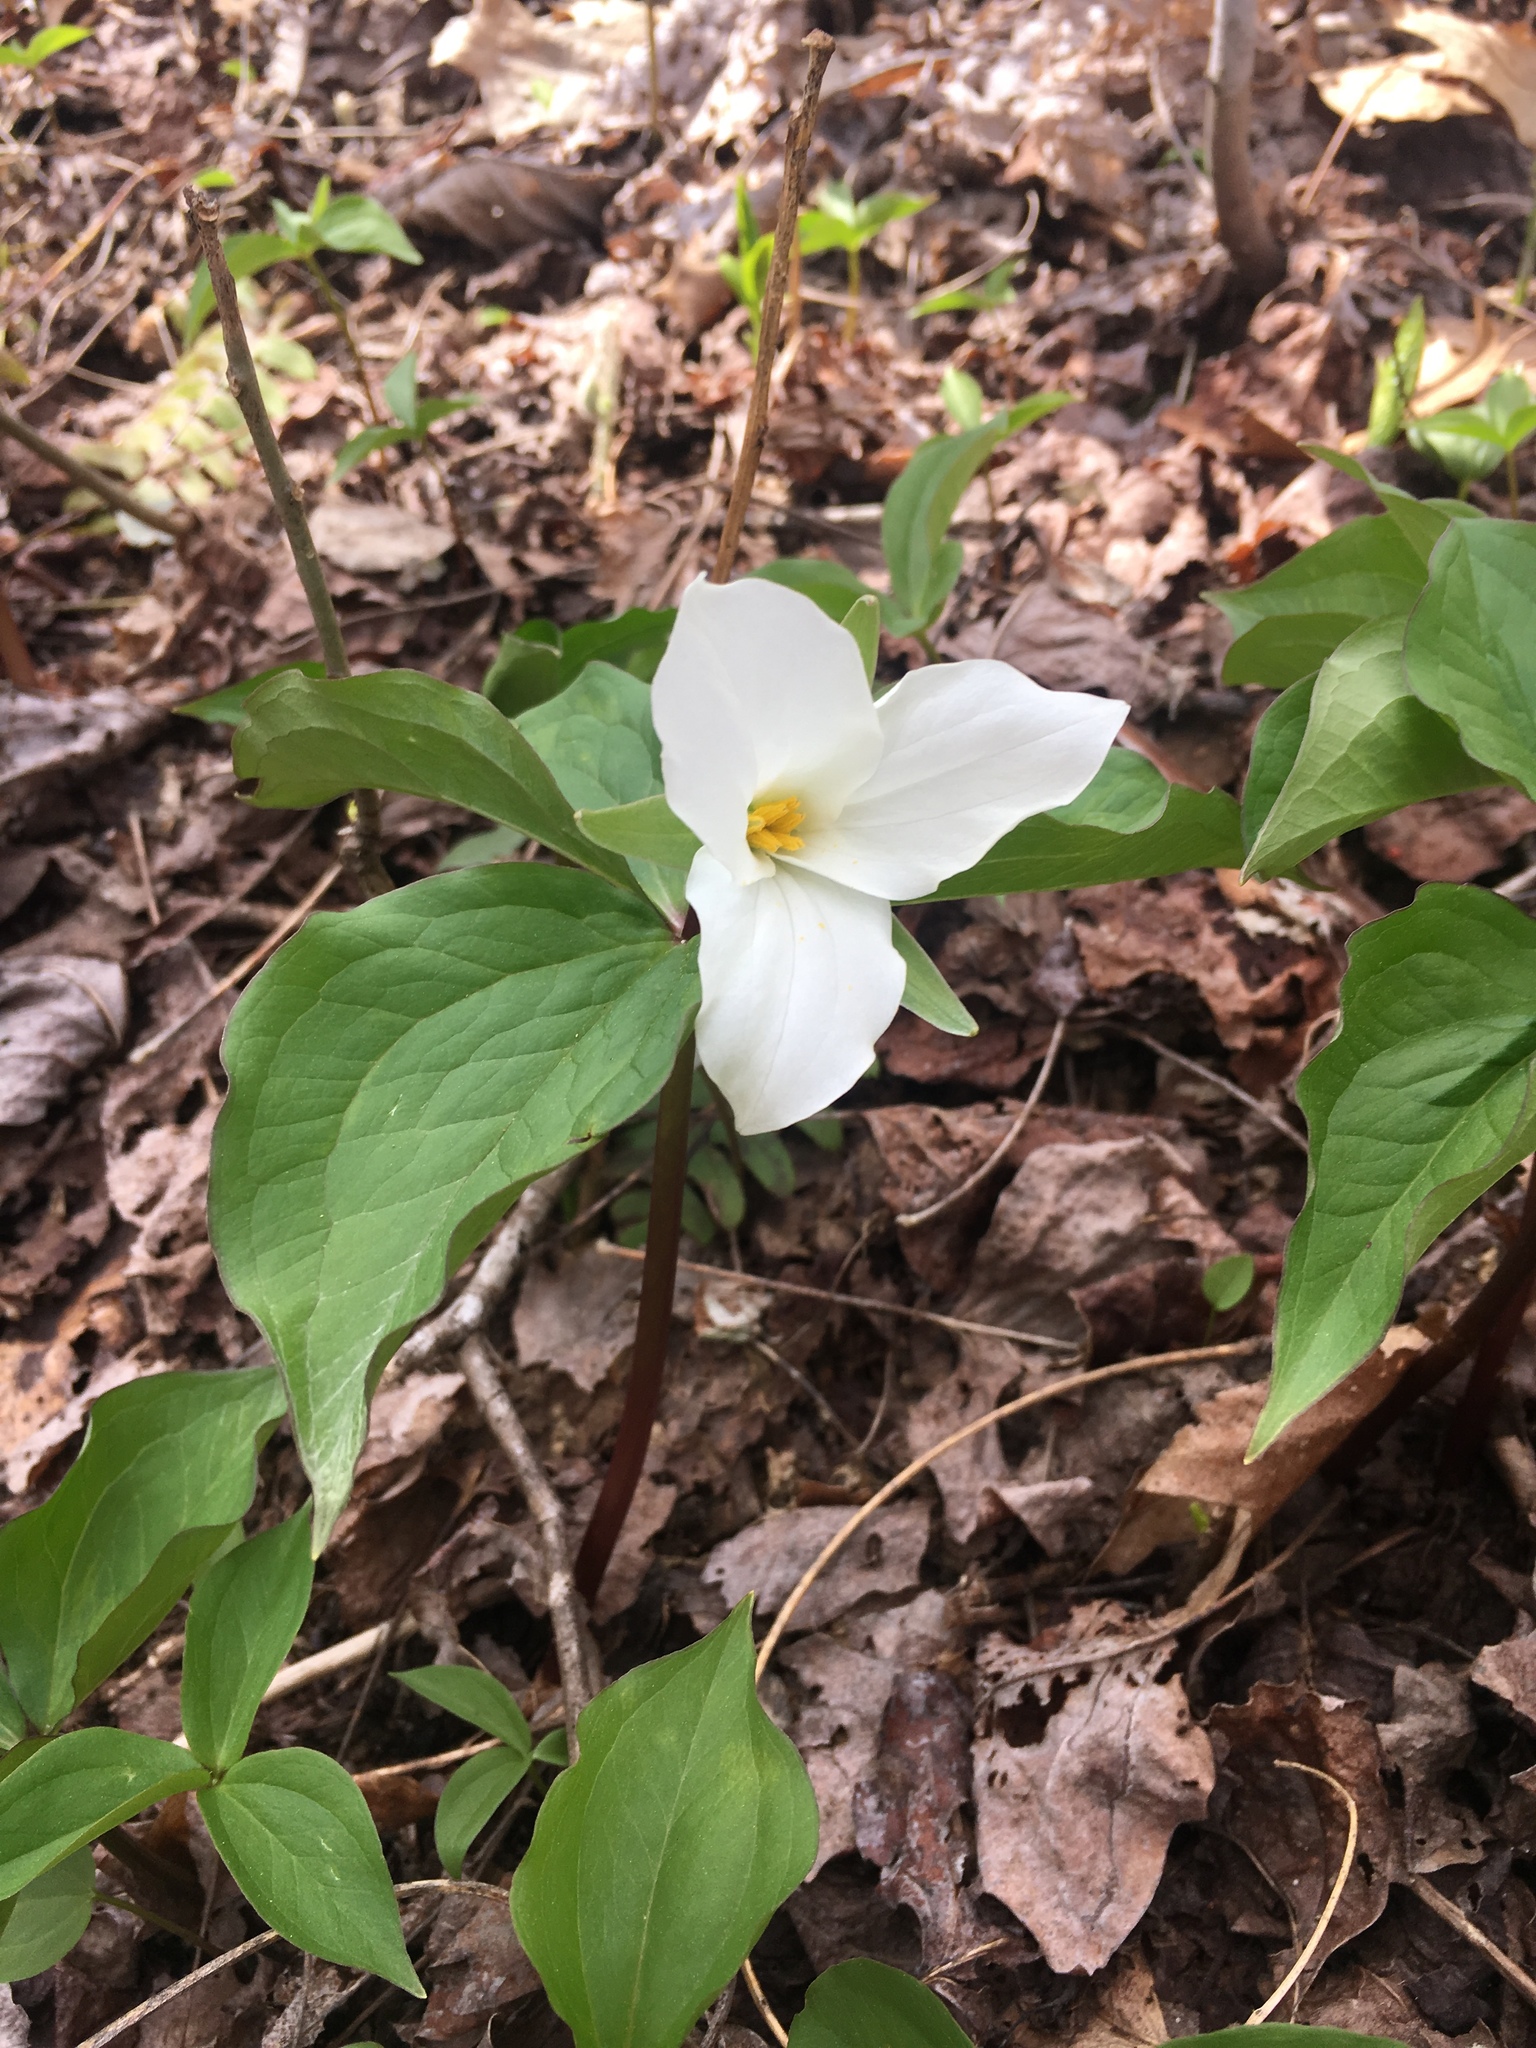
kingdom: Plantae
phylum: Tracheophyta
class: Liliopsida
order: Liliales
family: Melanthiaceae
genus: Trillium
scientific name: Trillium grandiflorum
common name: Great white trillium
